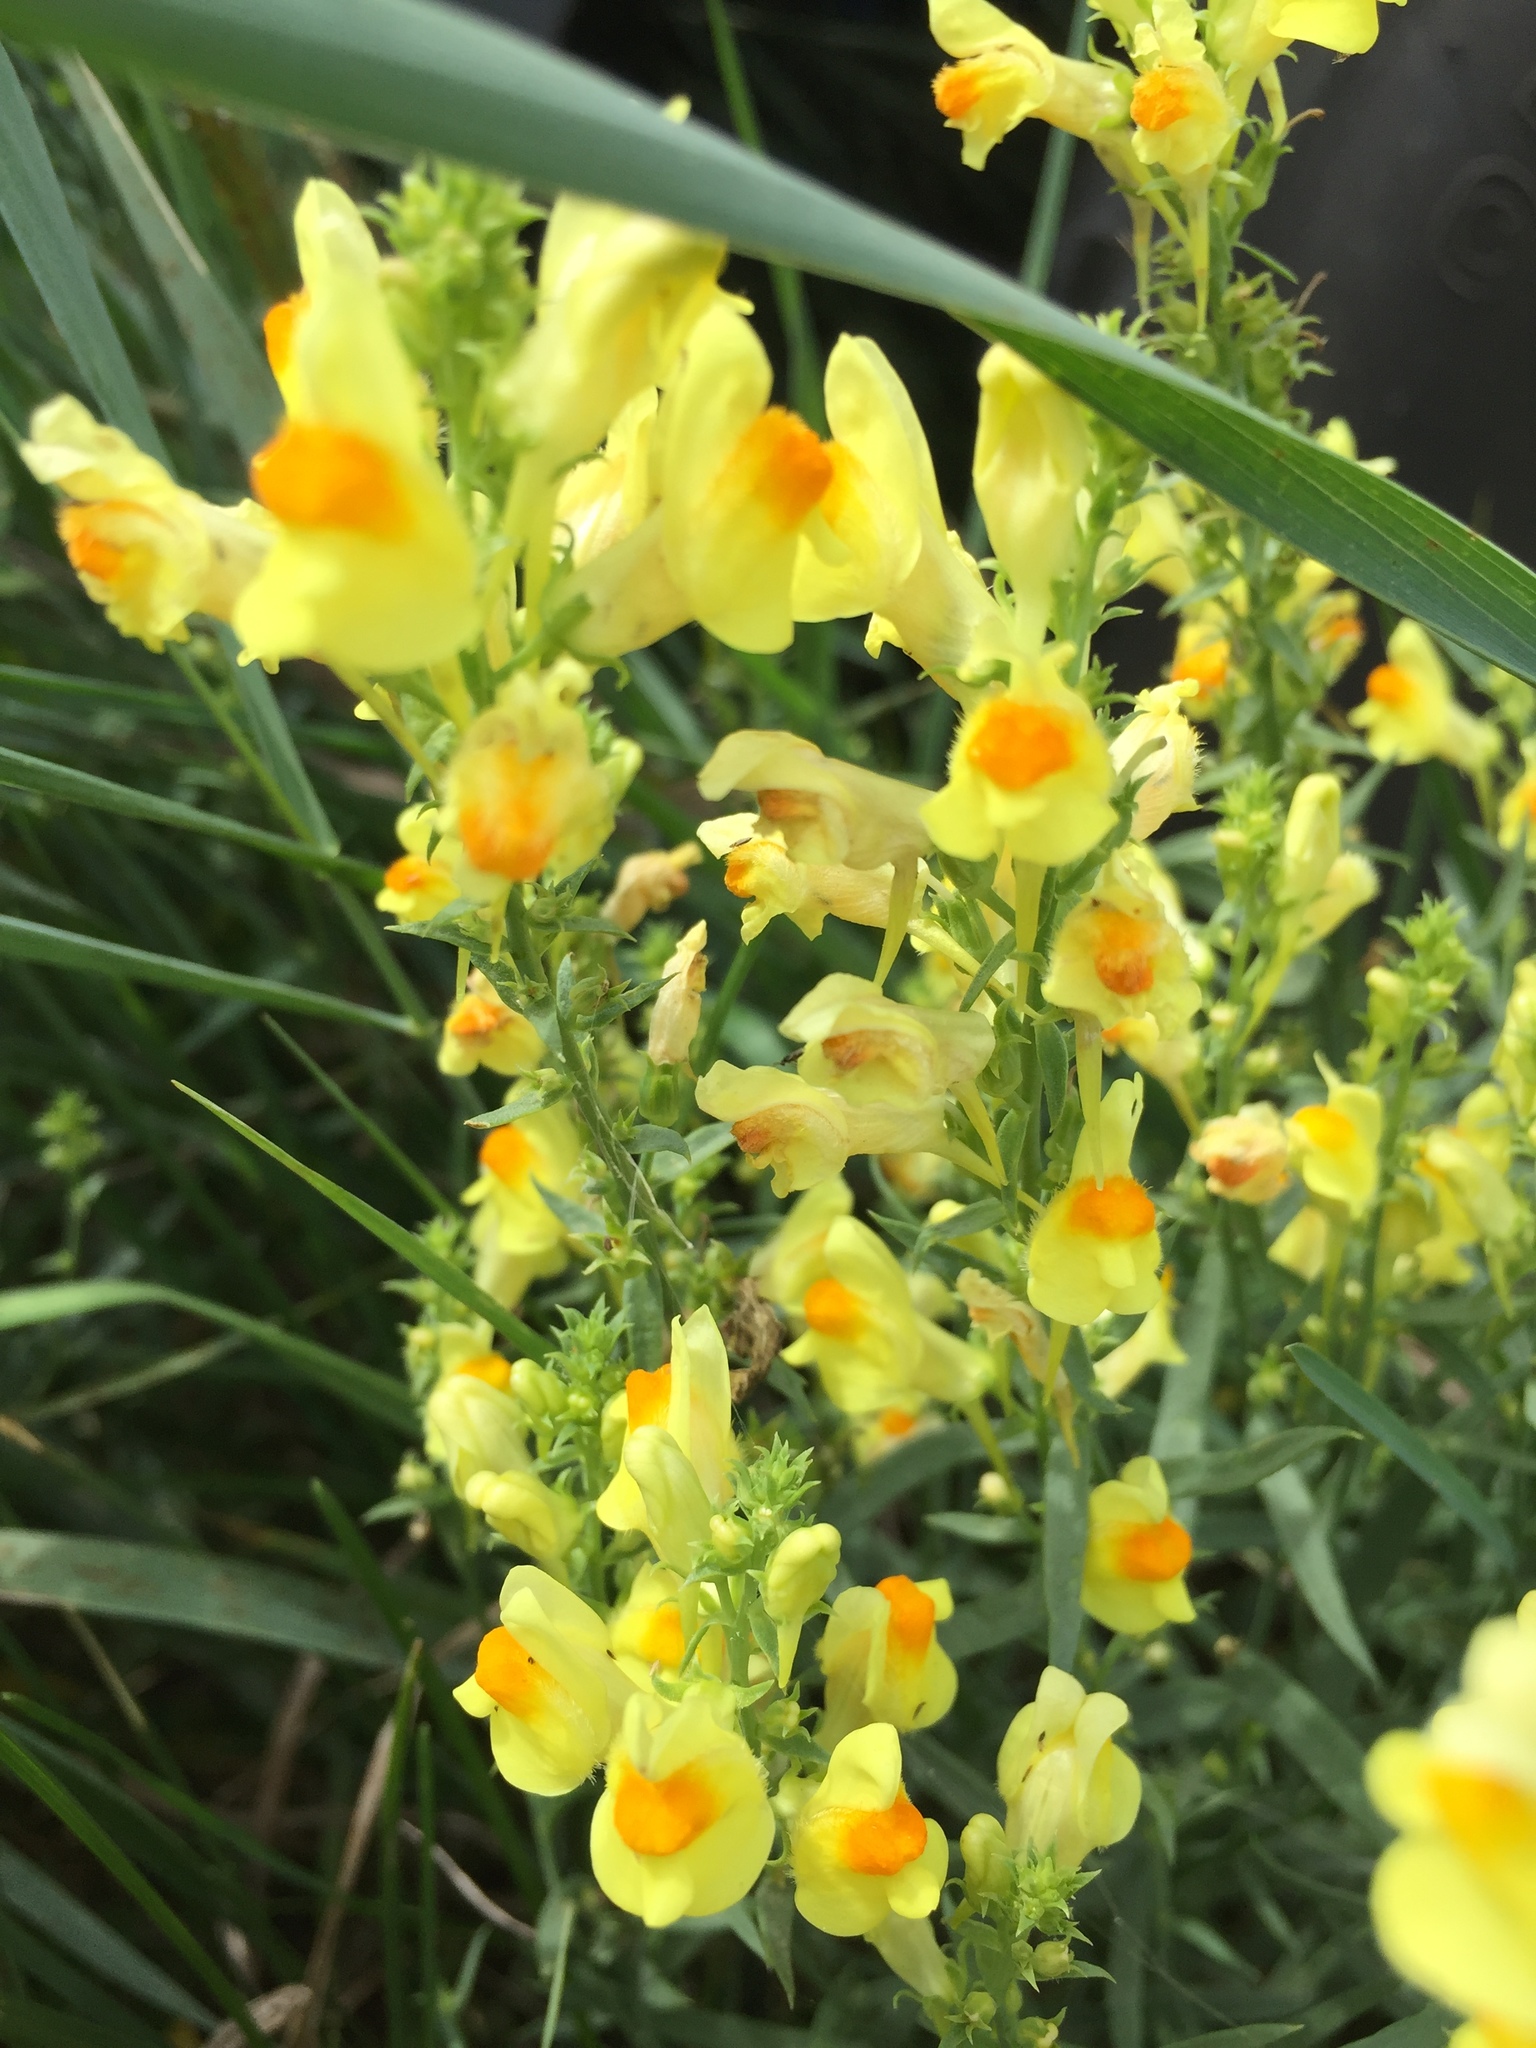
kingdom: Plantae
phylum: Tracheophyta
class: Magnoliopsida
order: Lamiales
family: Plantaginaceae
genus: Linaria
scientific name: Linaria vulgaris
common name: Butter and eggs
